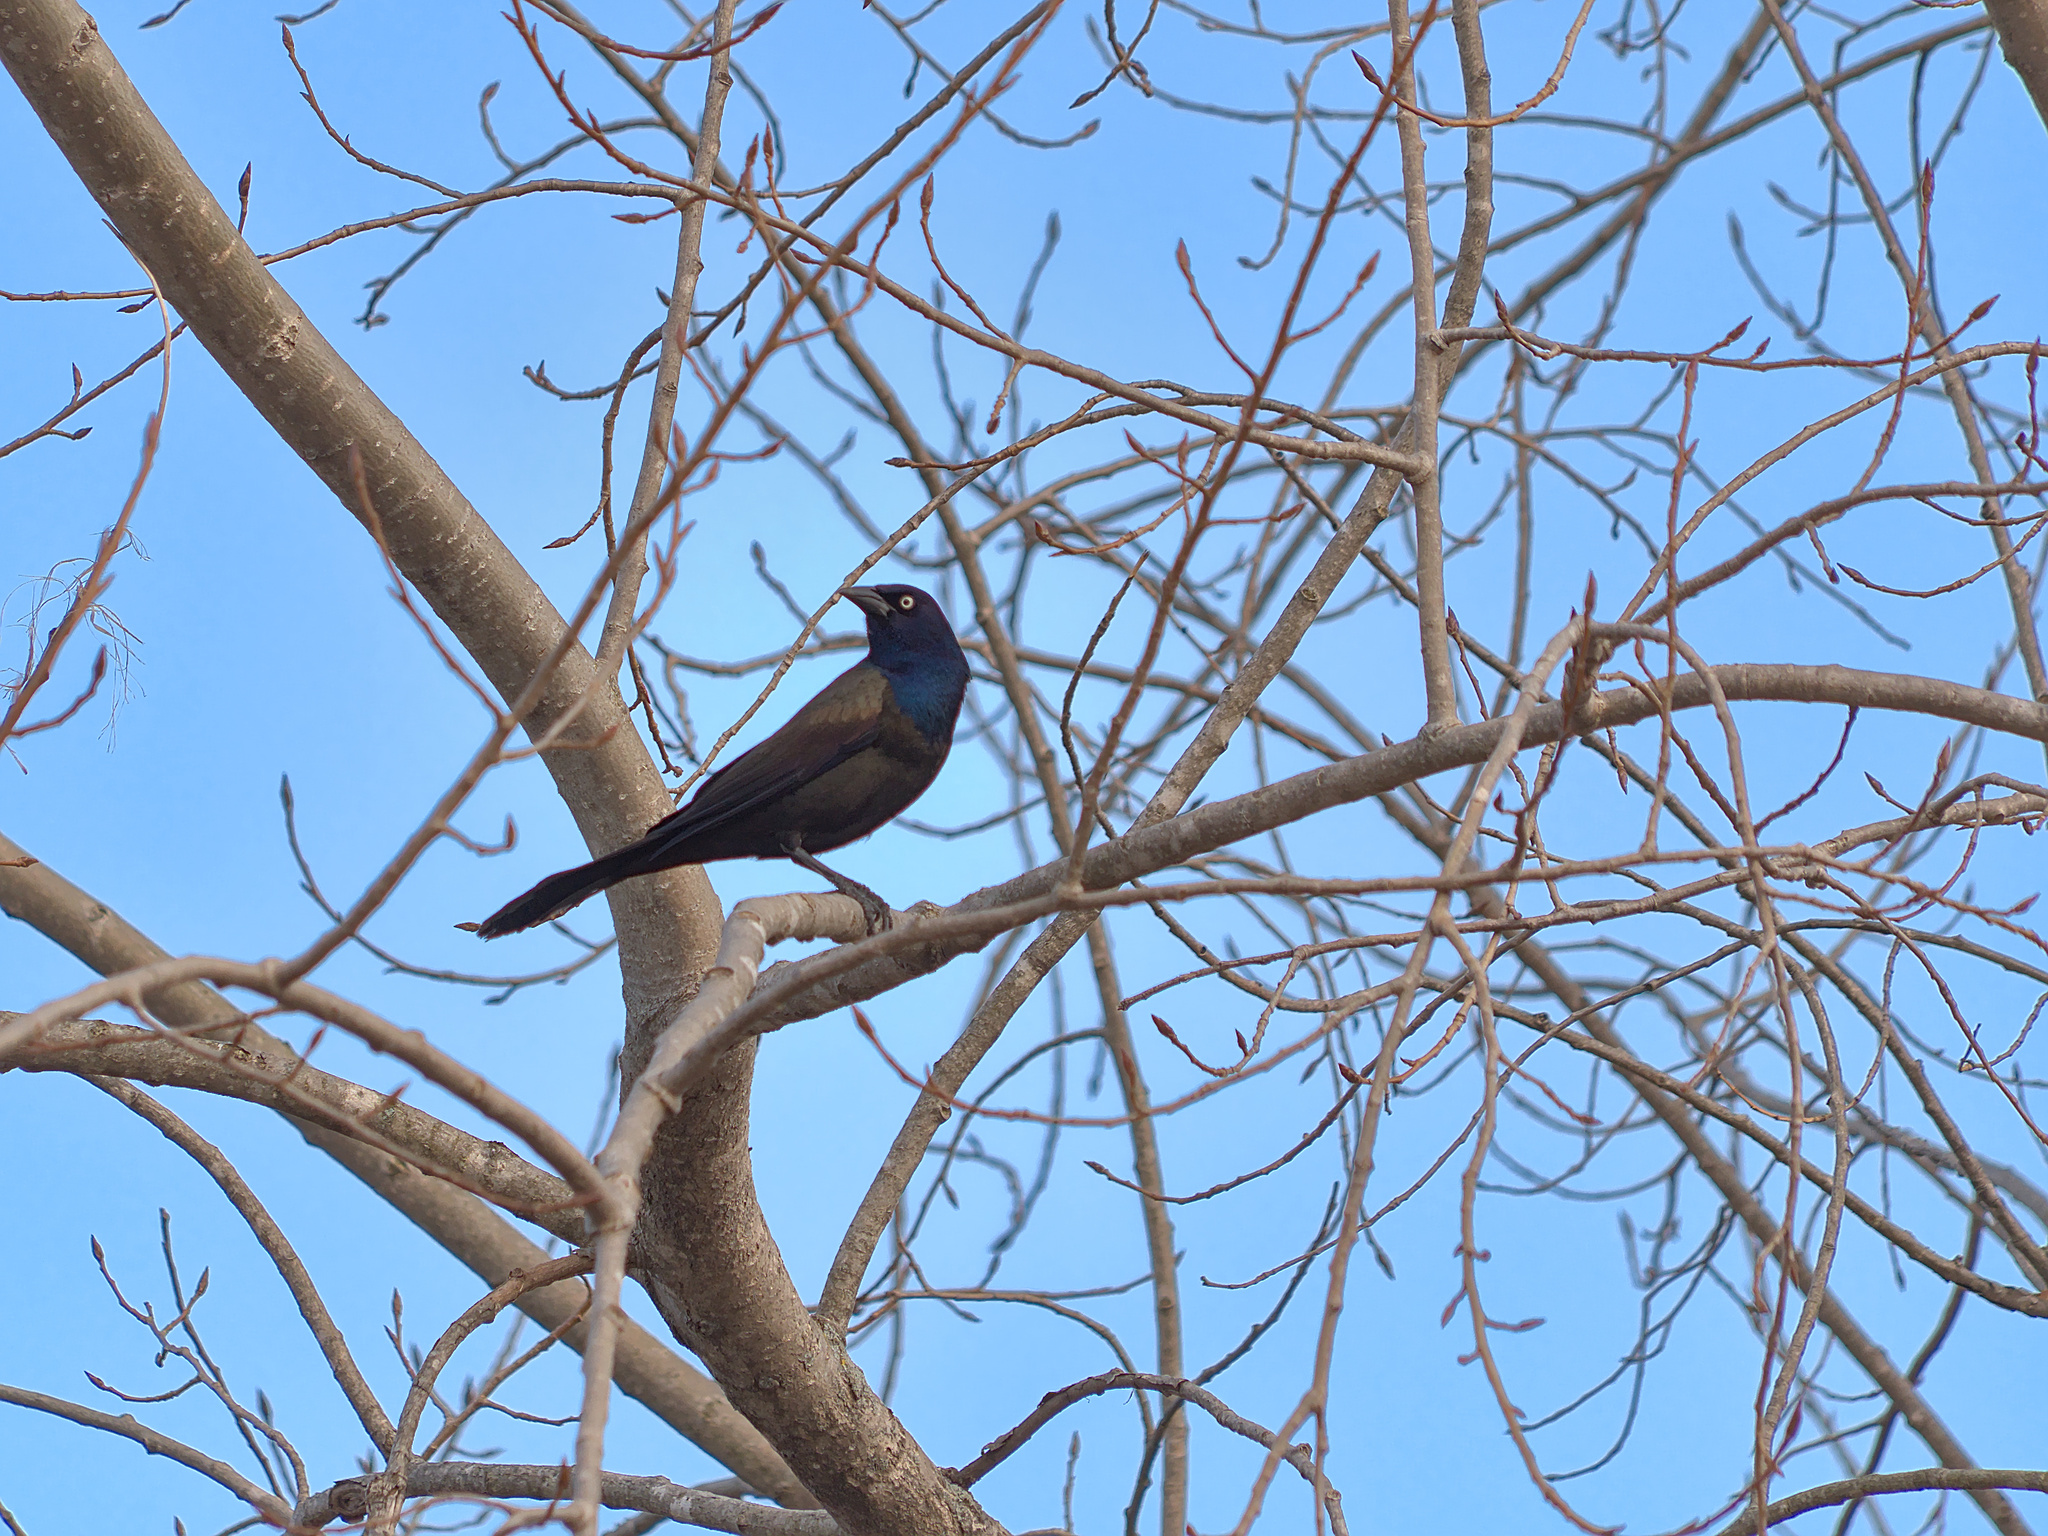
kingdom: Animalia
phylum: Chordata
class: Aves
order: Passeriformes
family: Icteridae
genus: Quiscalus
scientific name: Quiscalus quiscula
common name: Common grackle
